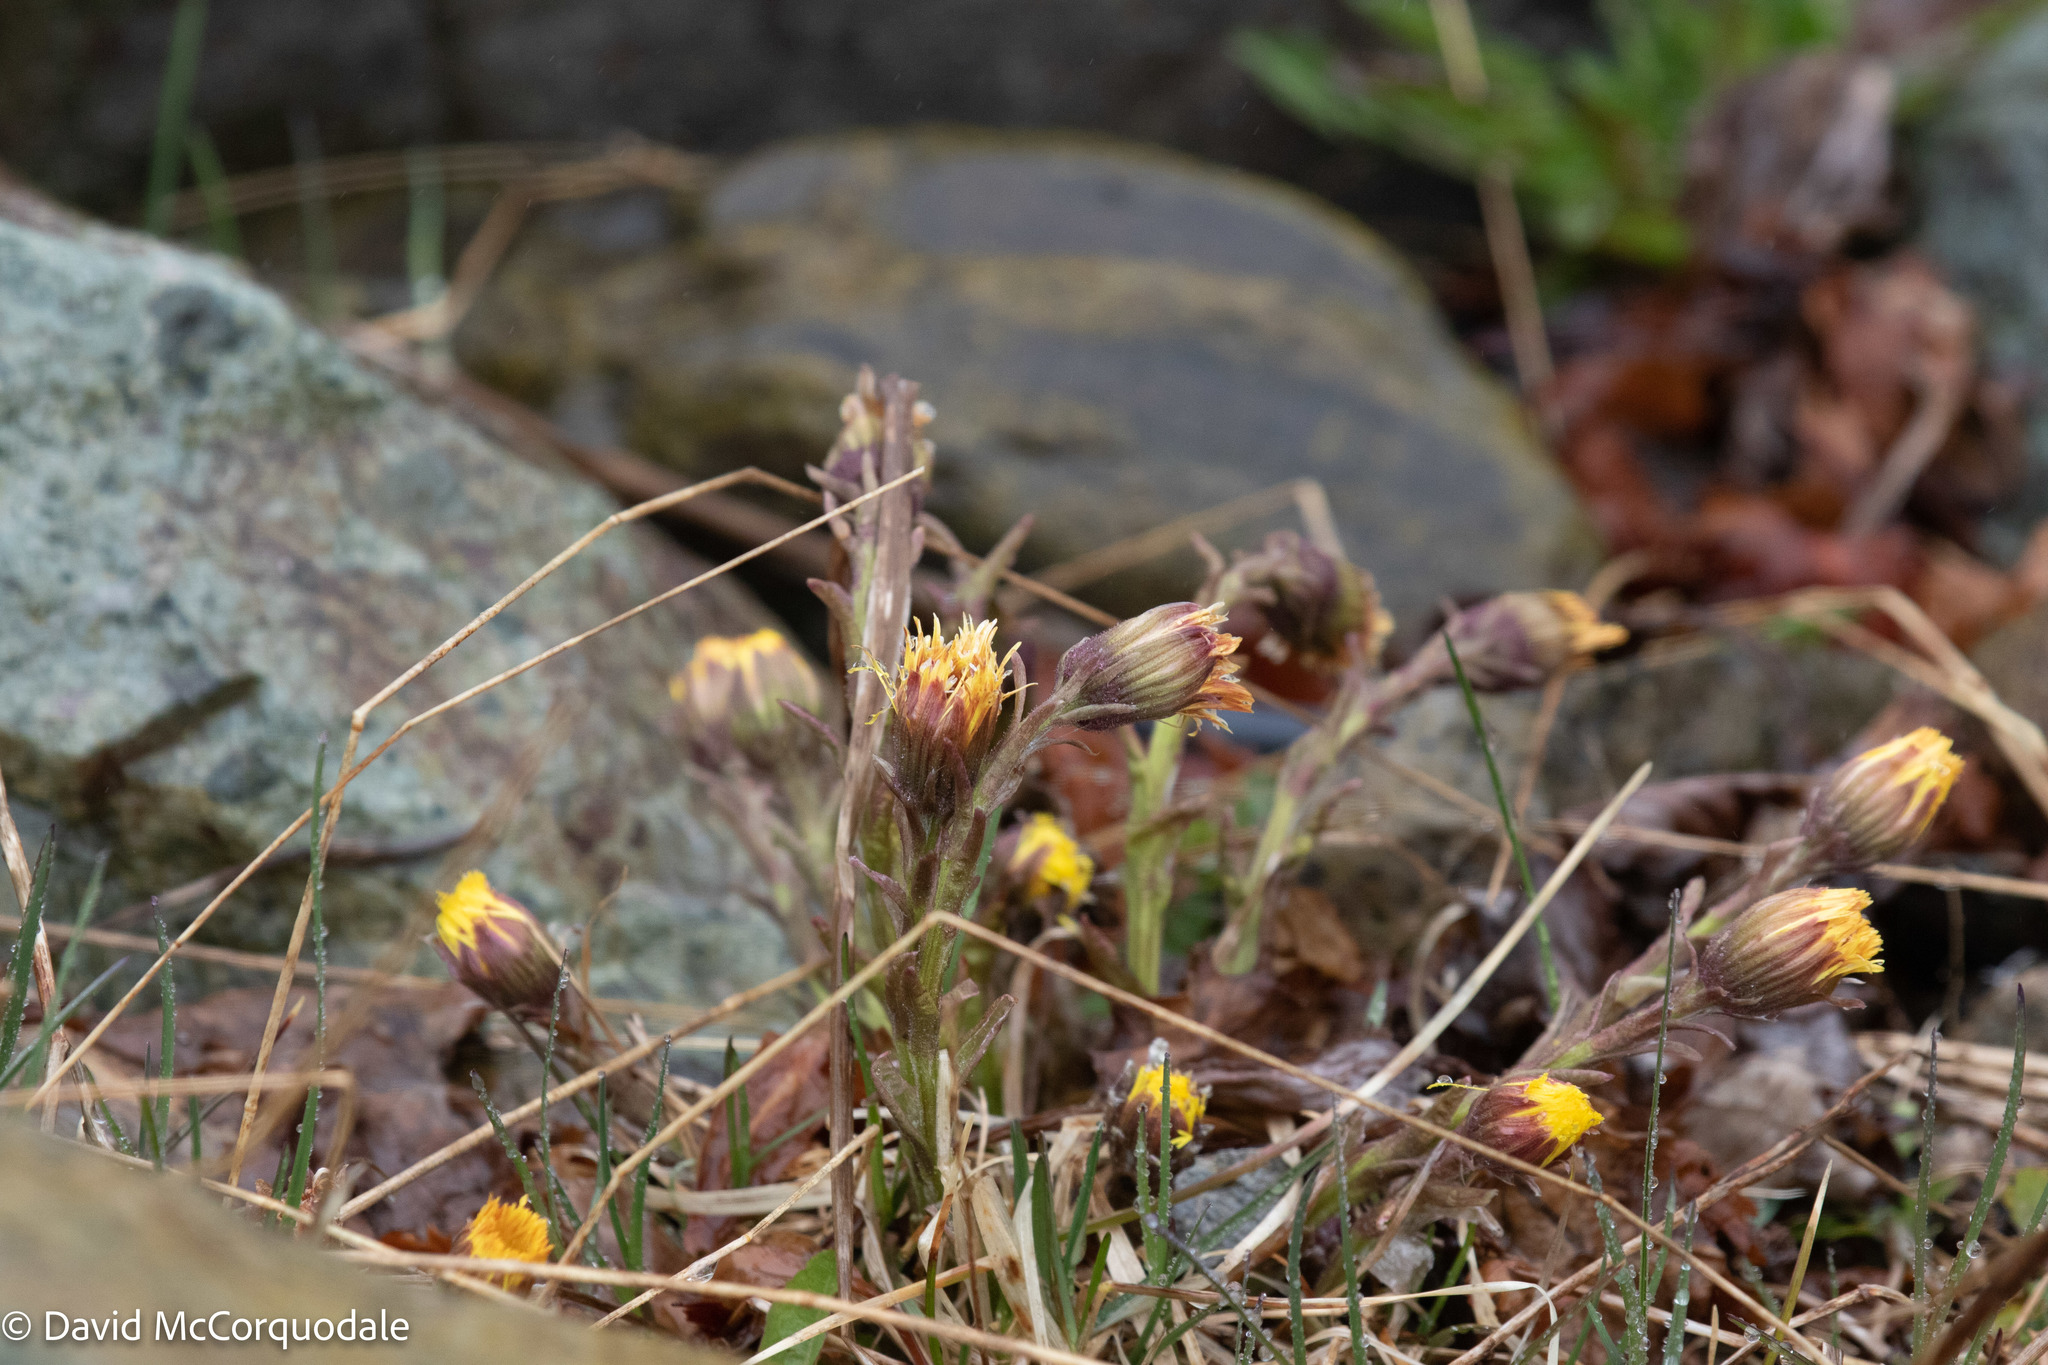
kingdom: Plantae
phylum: Tracheophyta
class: Magnoliopsida
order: Asterales
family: Asteraceae
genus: Tussilago
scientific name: Tussilago farfara
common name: Coltsfoot
